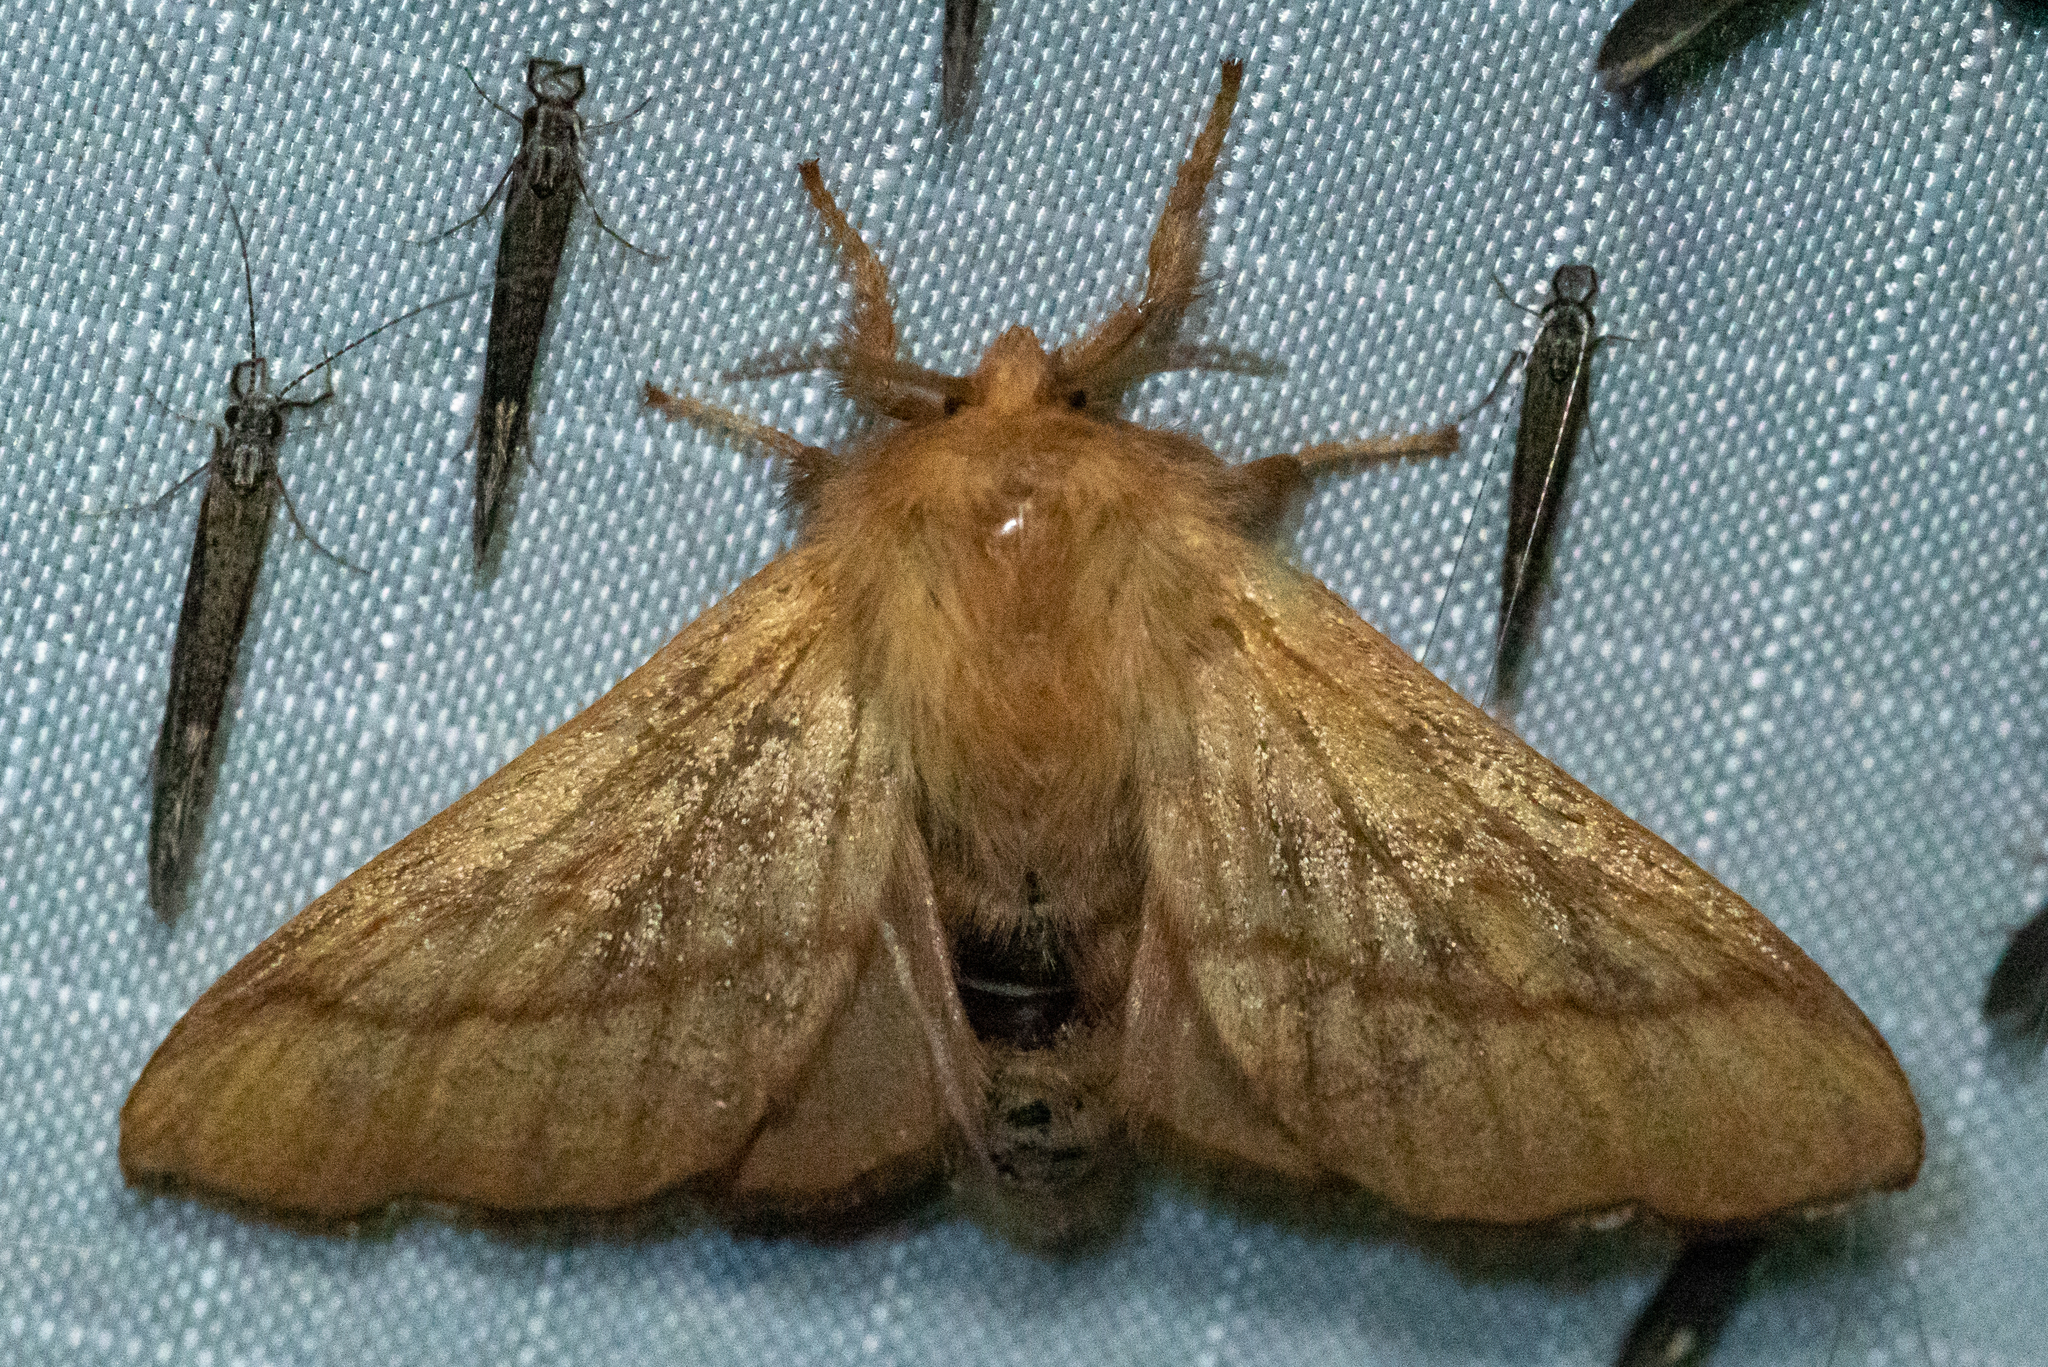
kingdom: Animalia
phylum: Arthropoda
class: Insecta
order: Lepidoptera
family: Lasiocampidae
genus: Malacosoma
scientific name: Malacosoma disstria
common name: Forest tent caterpillar
